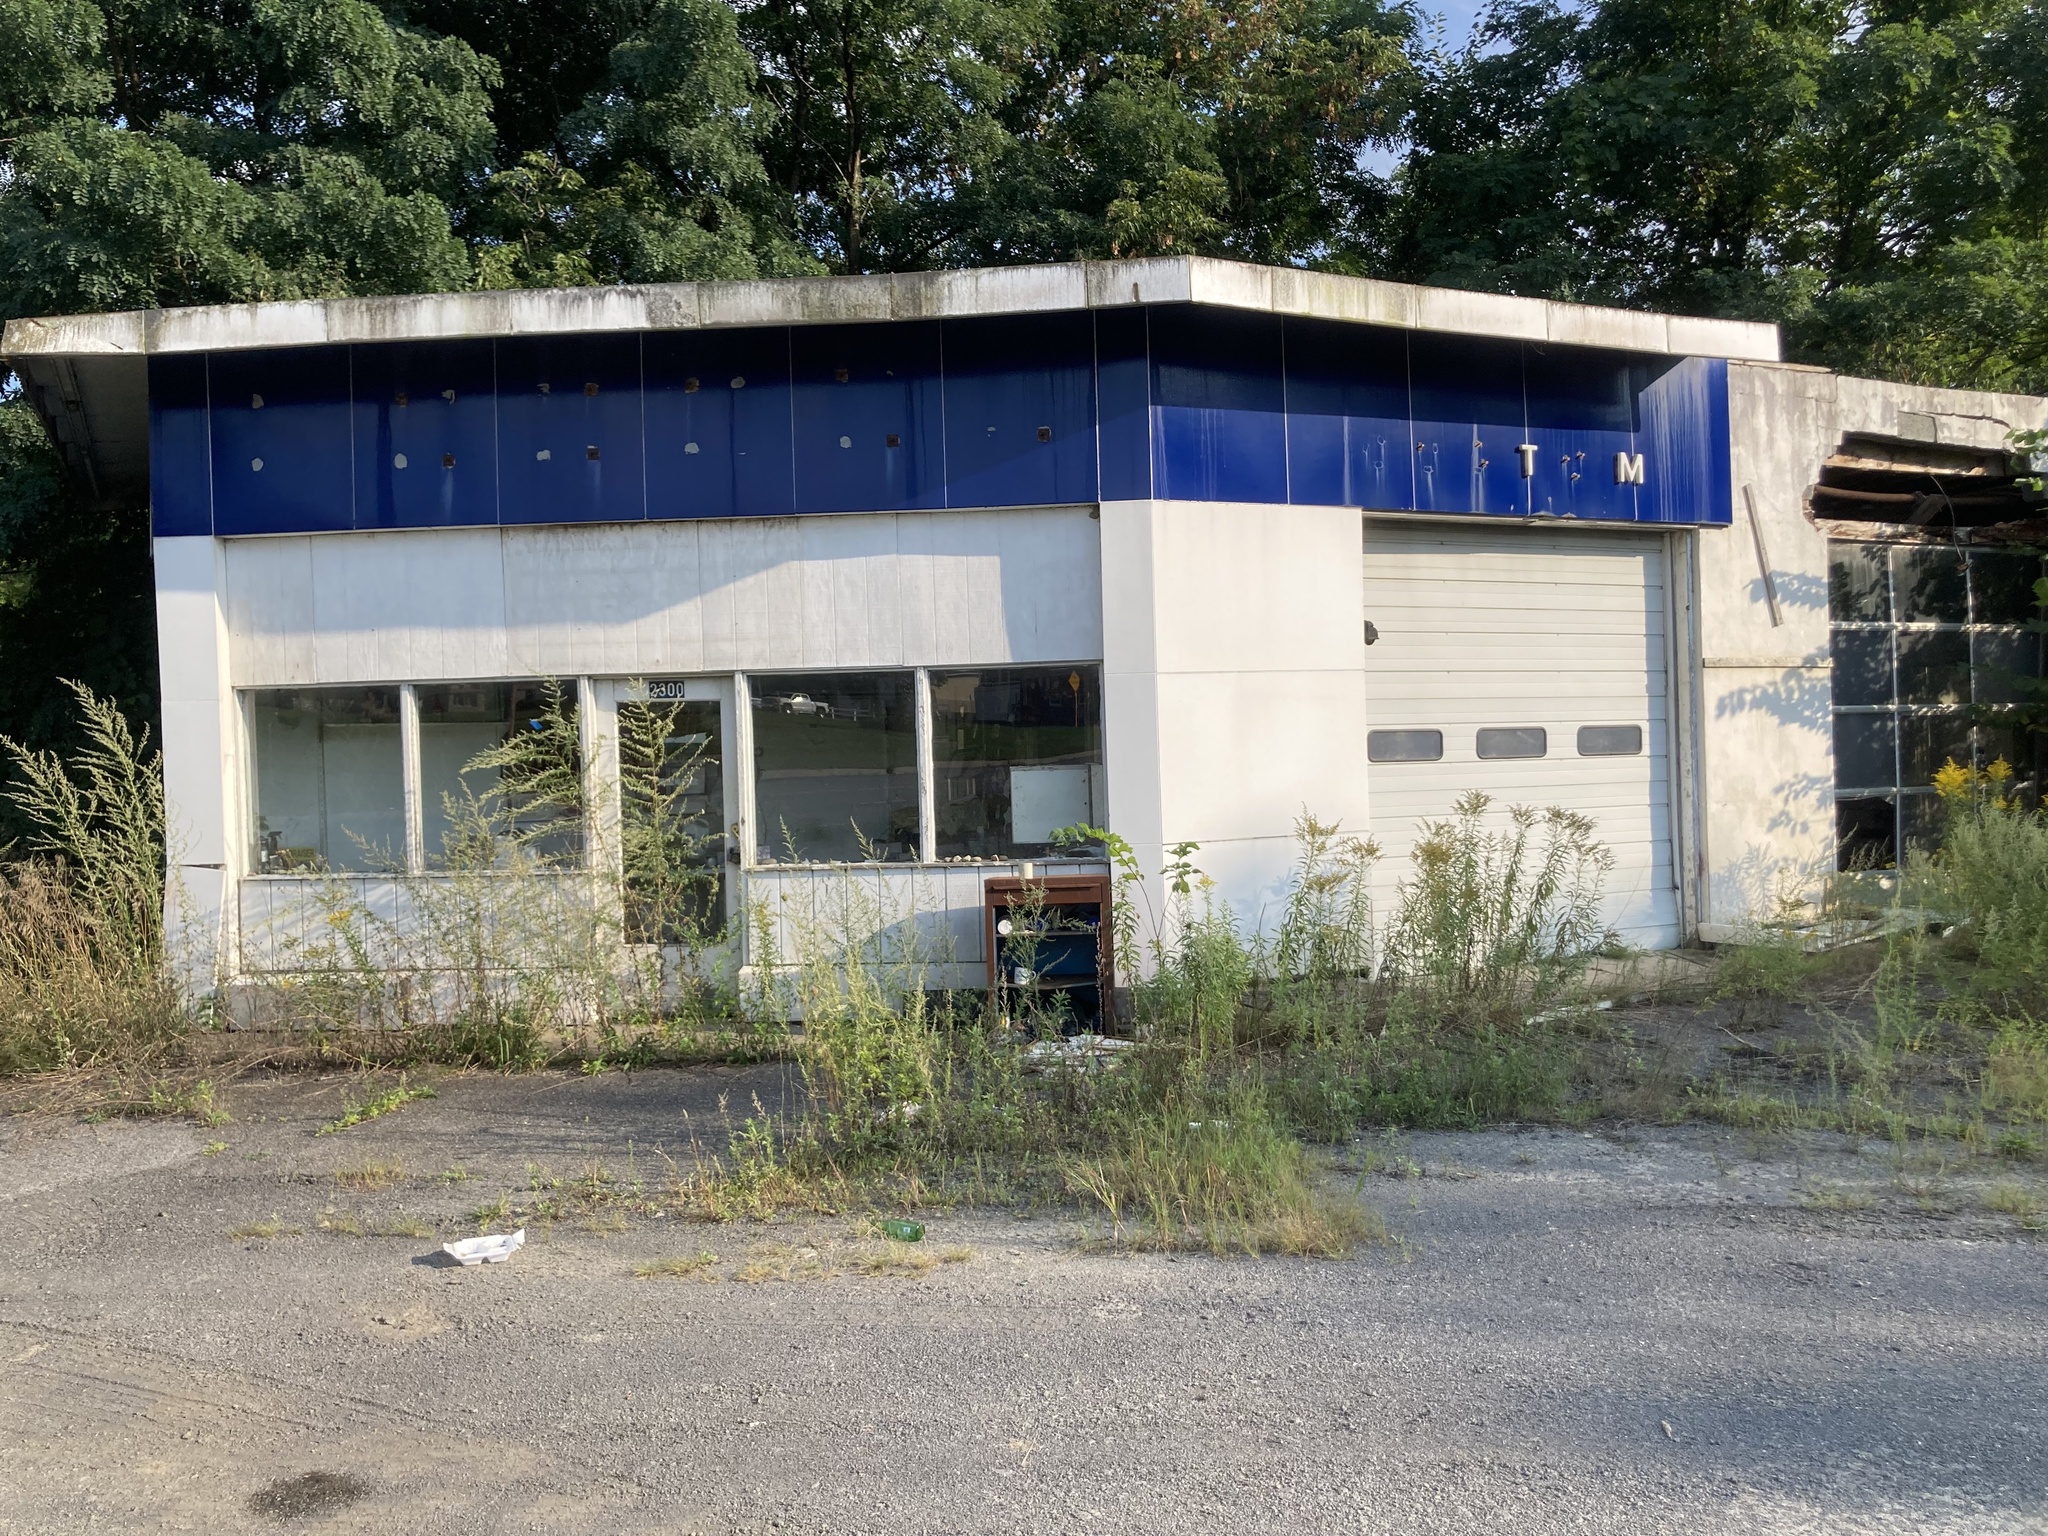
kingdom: Plantae
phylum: Tracheophyta
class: Magnoliopsida
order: Asterales
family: Asteraceae
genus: Erigeron
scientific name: Erigeron canadensis
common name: Canadian fleabane
